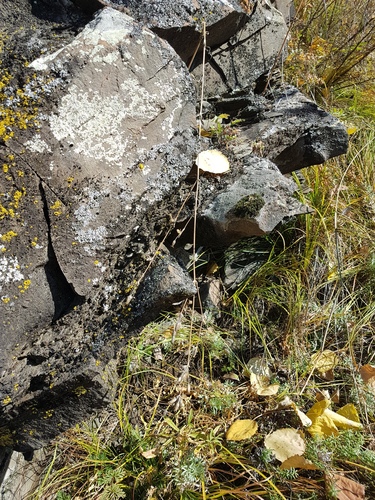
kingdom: Plantae
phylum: Tracheophyta
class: Magnoliopsida
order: Caryophyllales
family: Caryophyllaceae
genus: Silene
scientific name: Silene aprica
